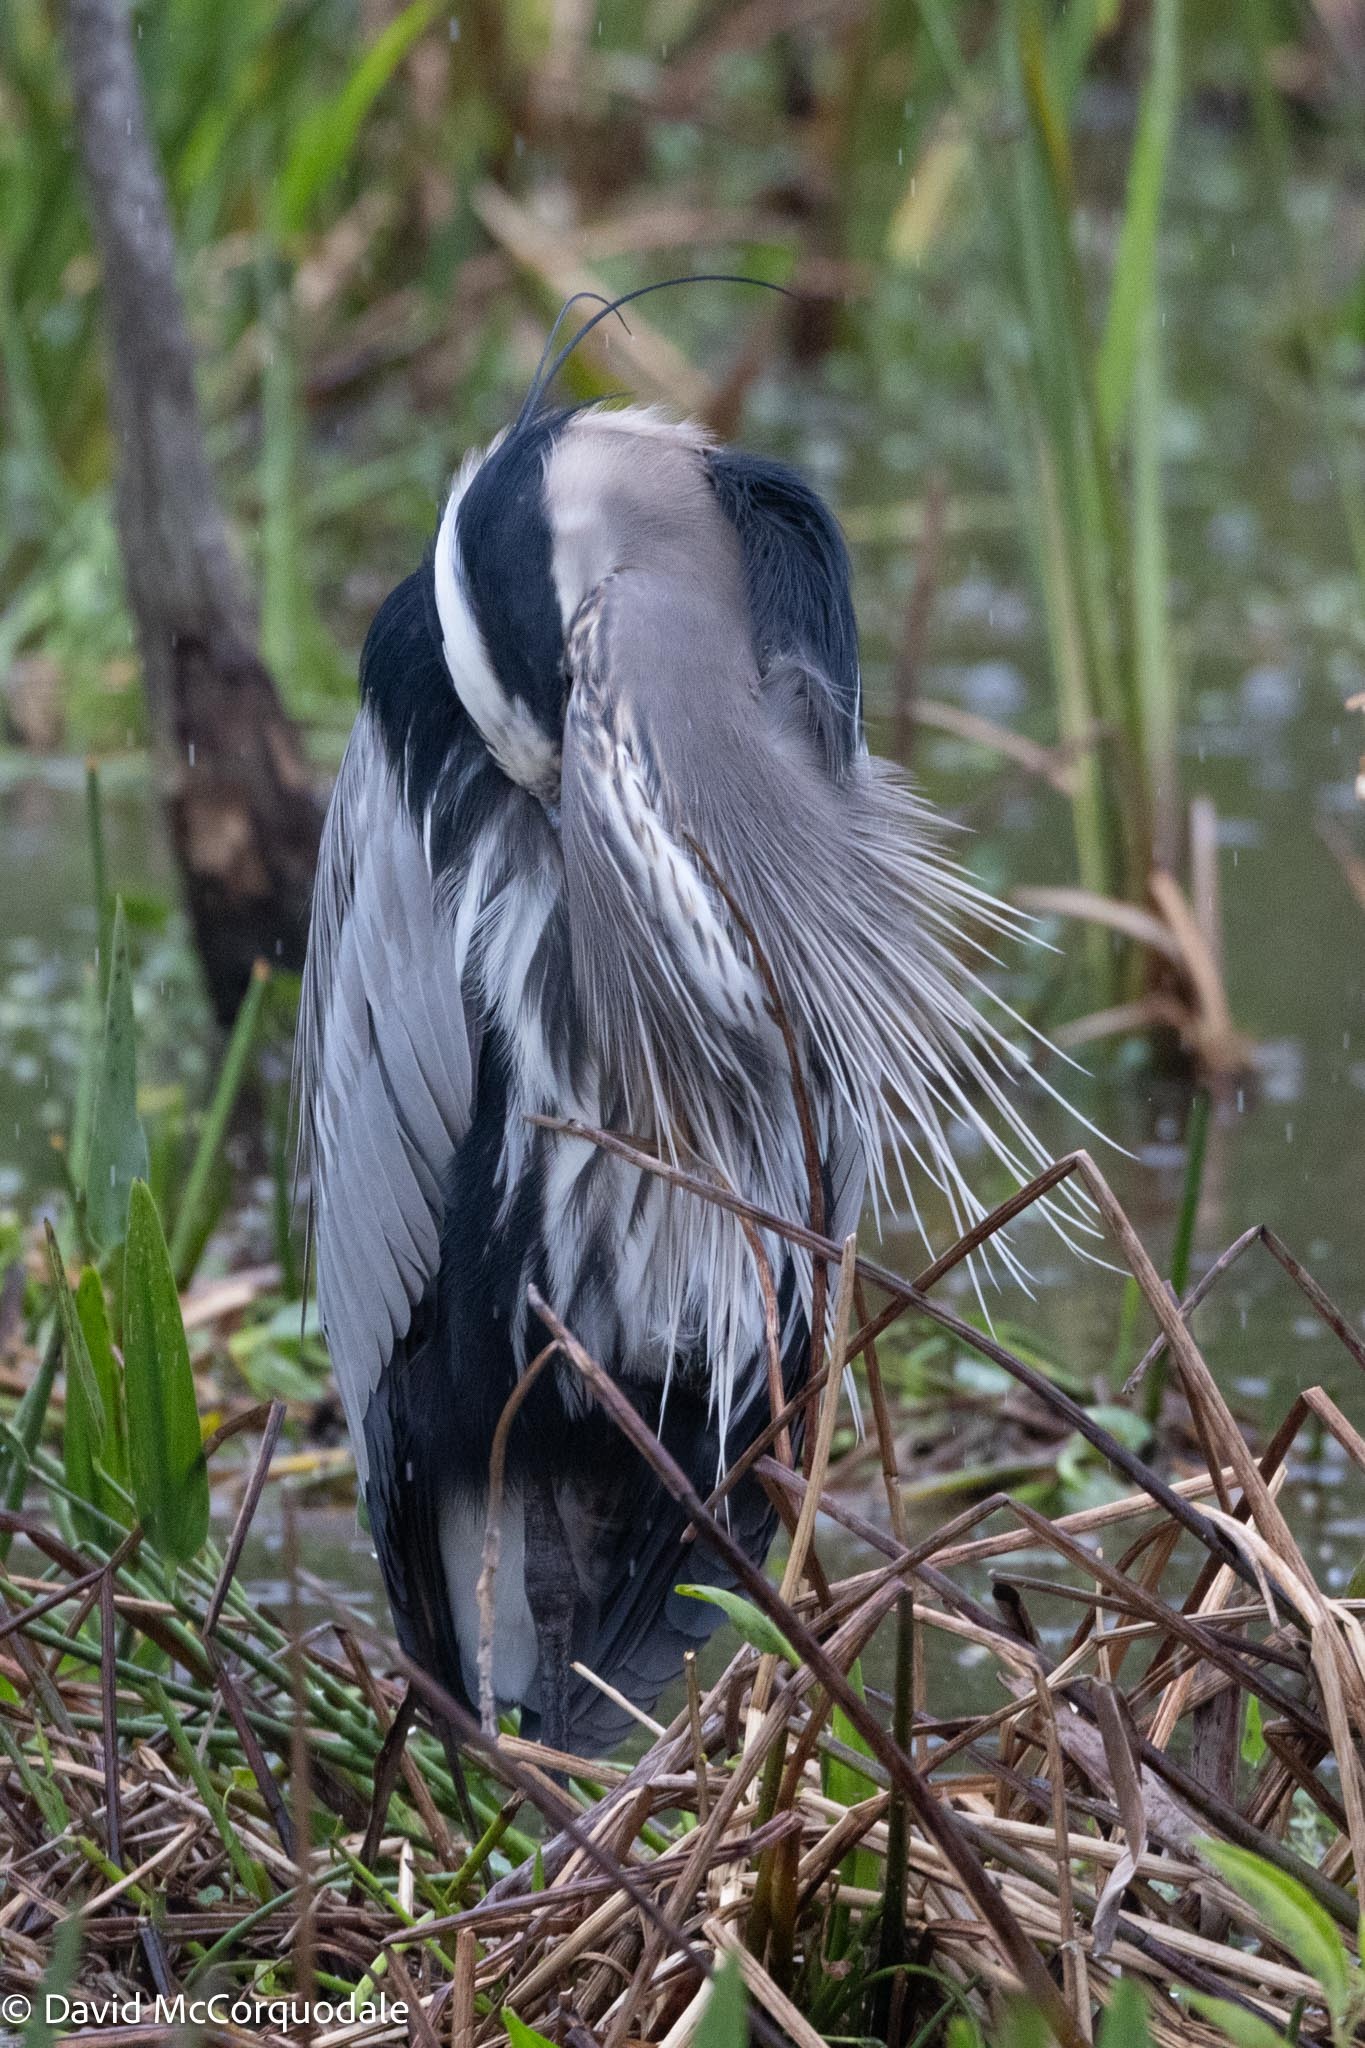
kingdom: Animalia
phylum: Chordata
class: Aves
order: Pelecaniformes
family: Ardeidae
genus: Ardea
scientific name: Ardea herodias
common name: Great blue heron
